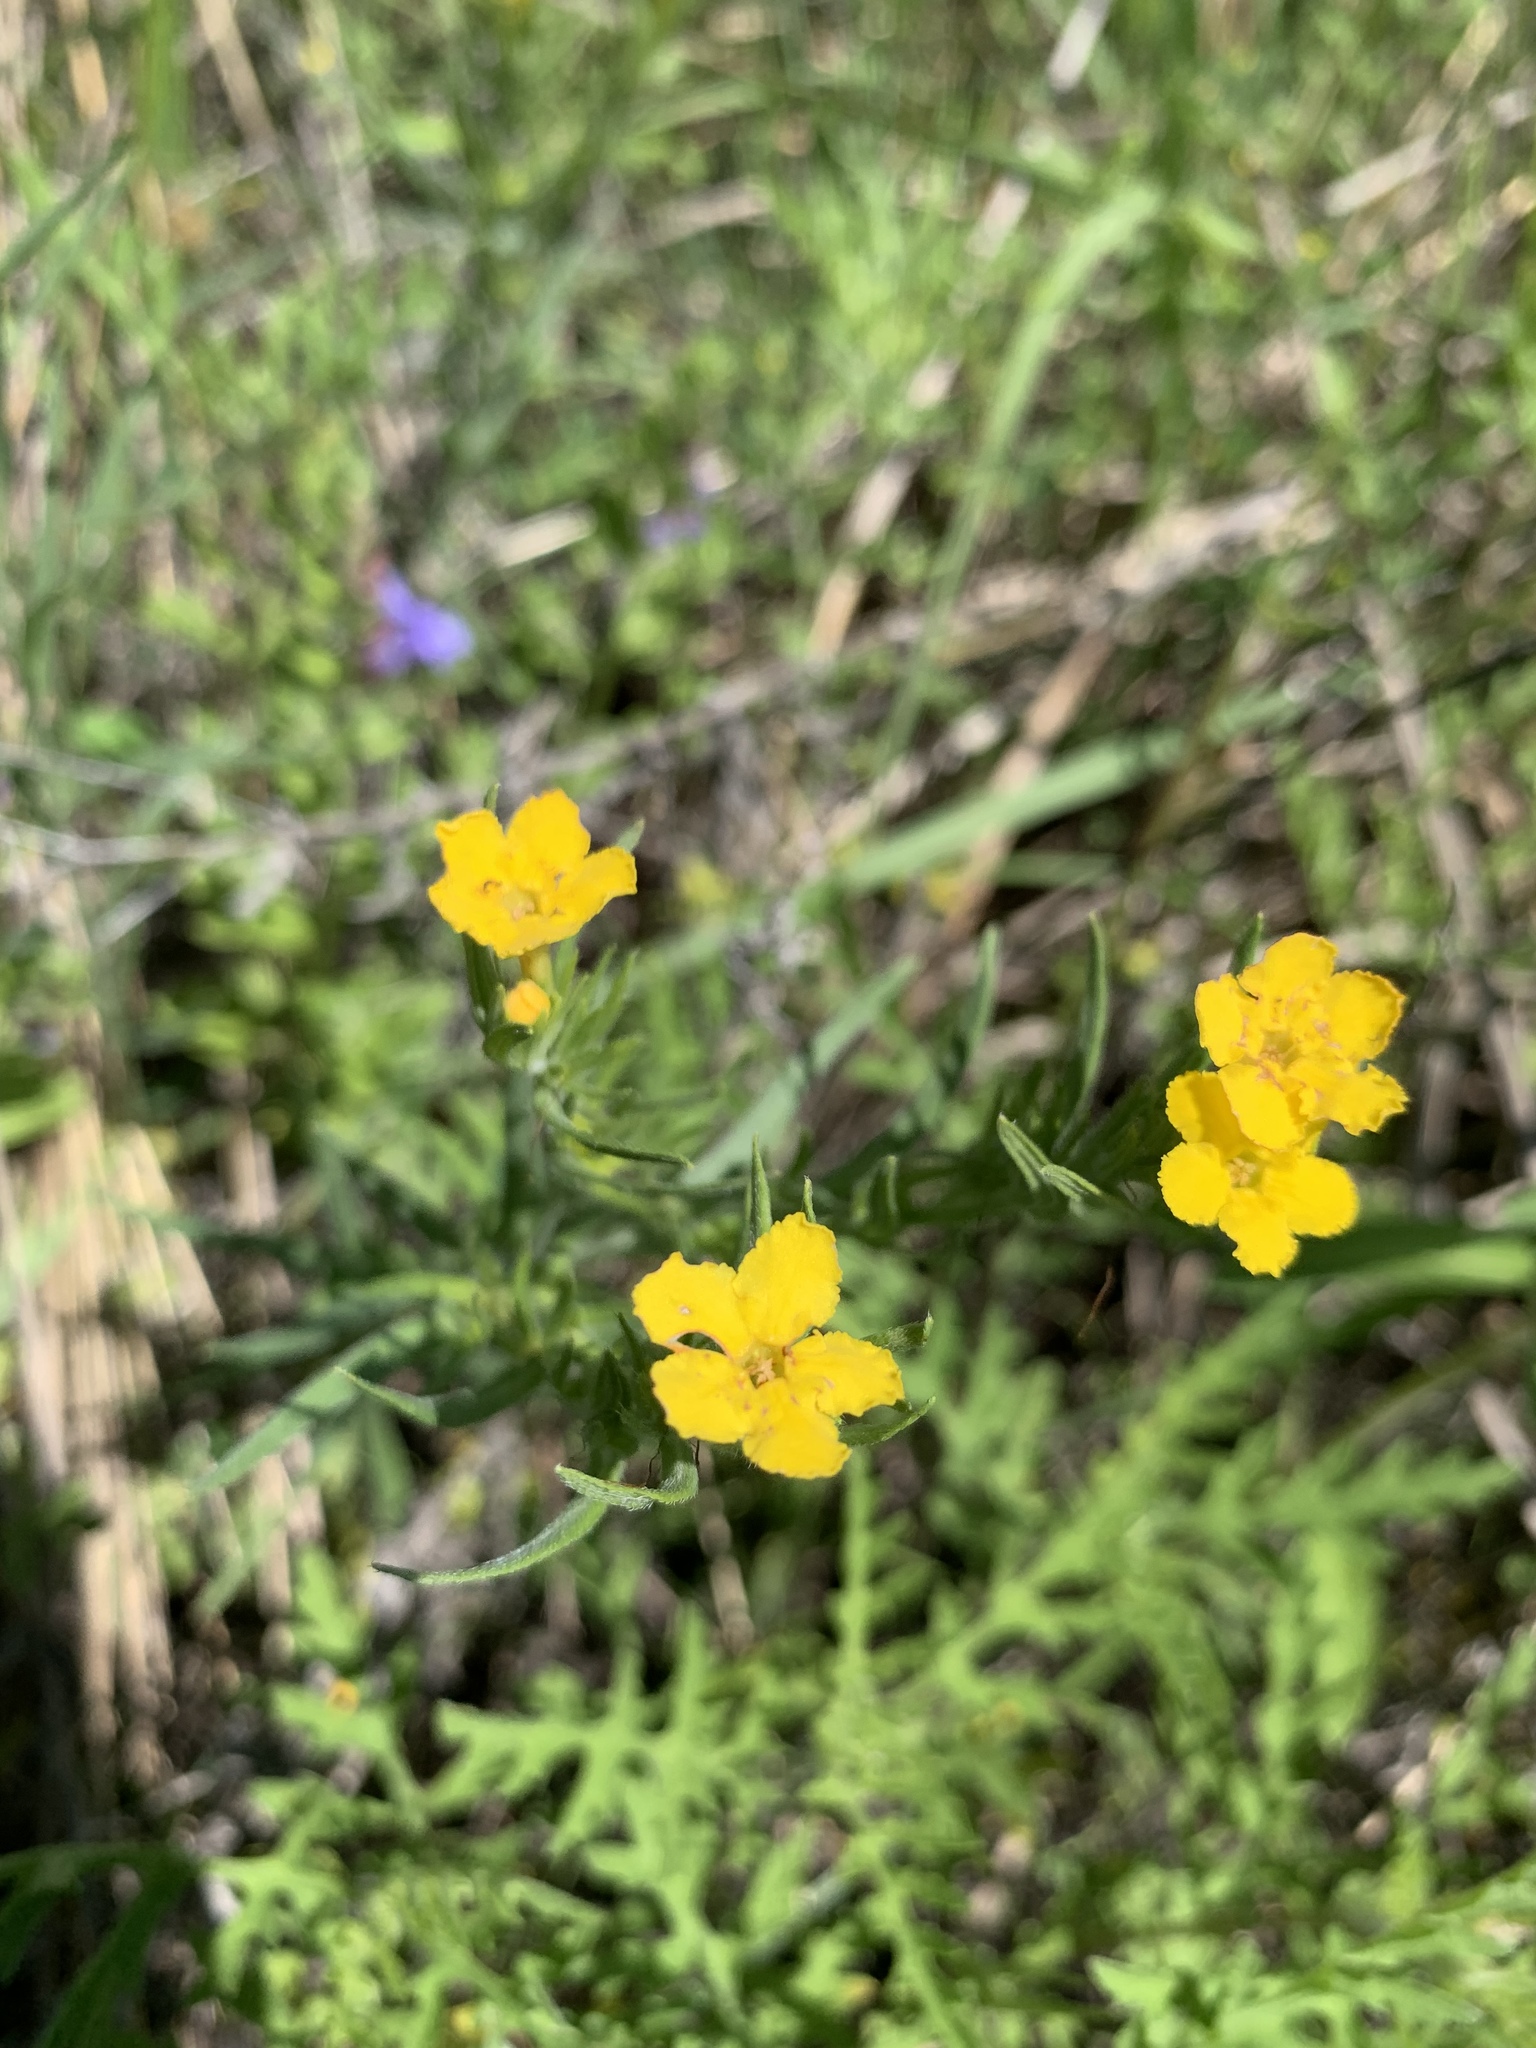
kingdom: Plantae
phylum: Tracheophyta
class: Magnoliopsida
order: Boraginales
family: Boraginaceae
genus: Lithospermum
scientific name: Lithospermum incisum
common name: Fringed gromwell
